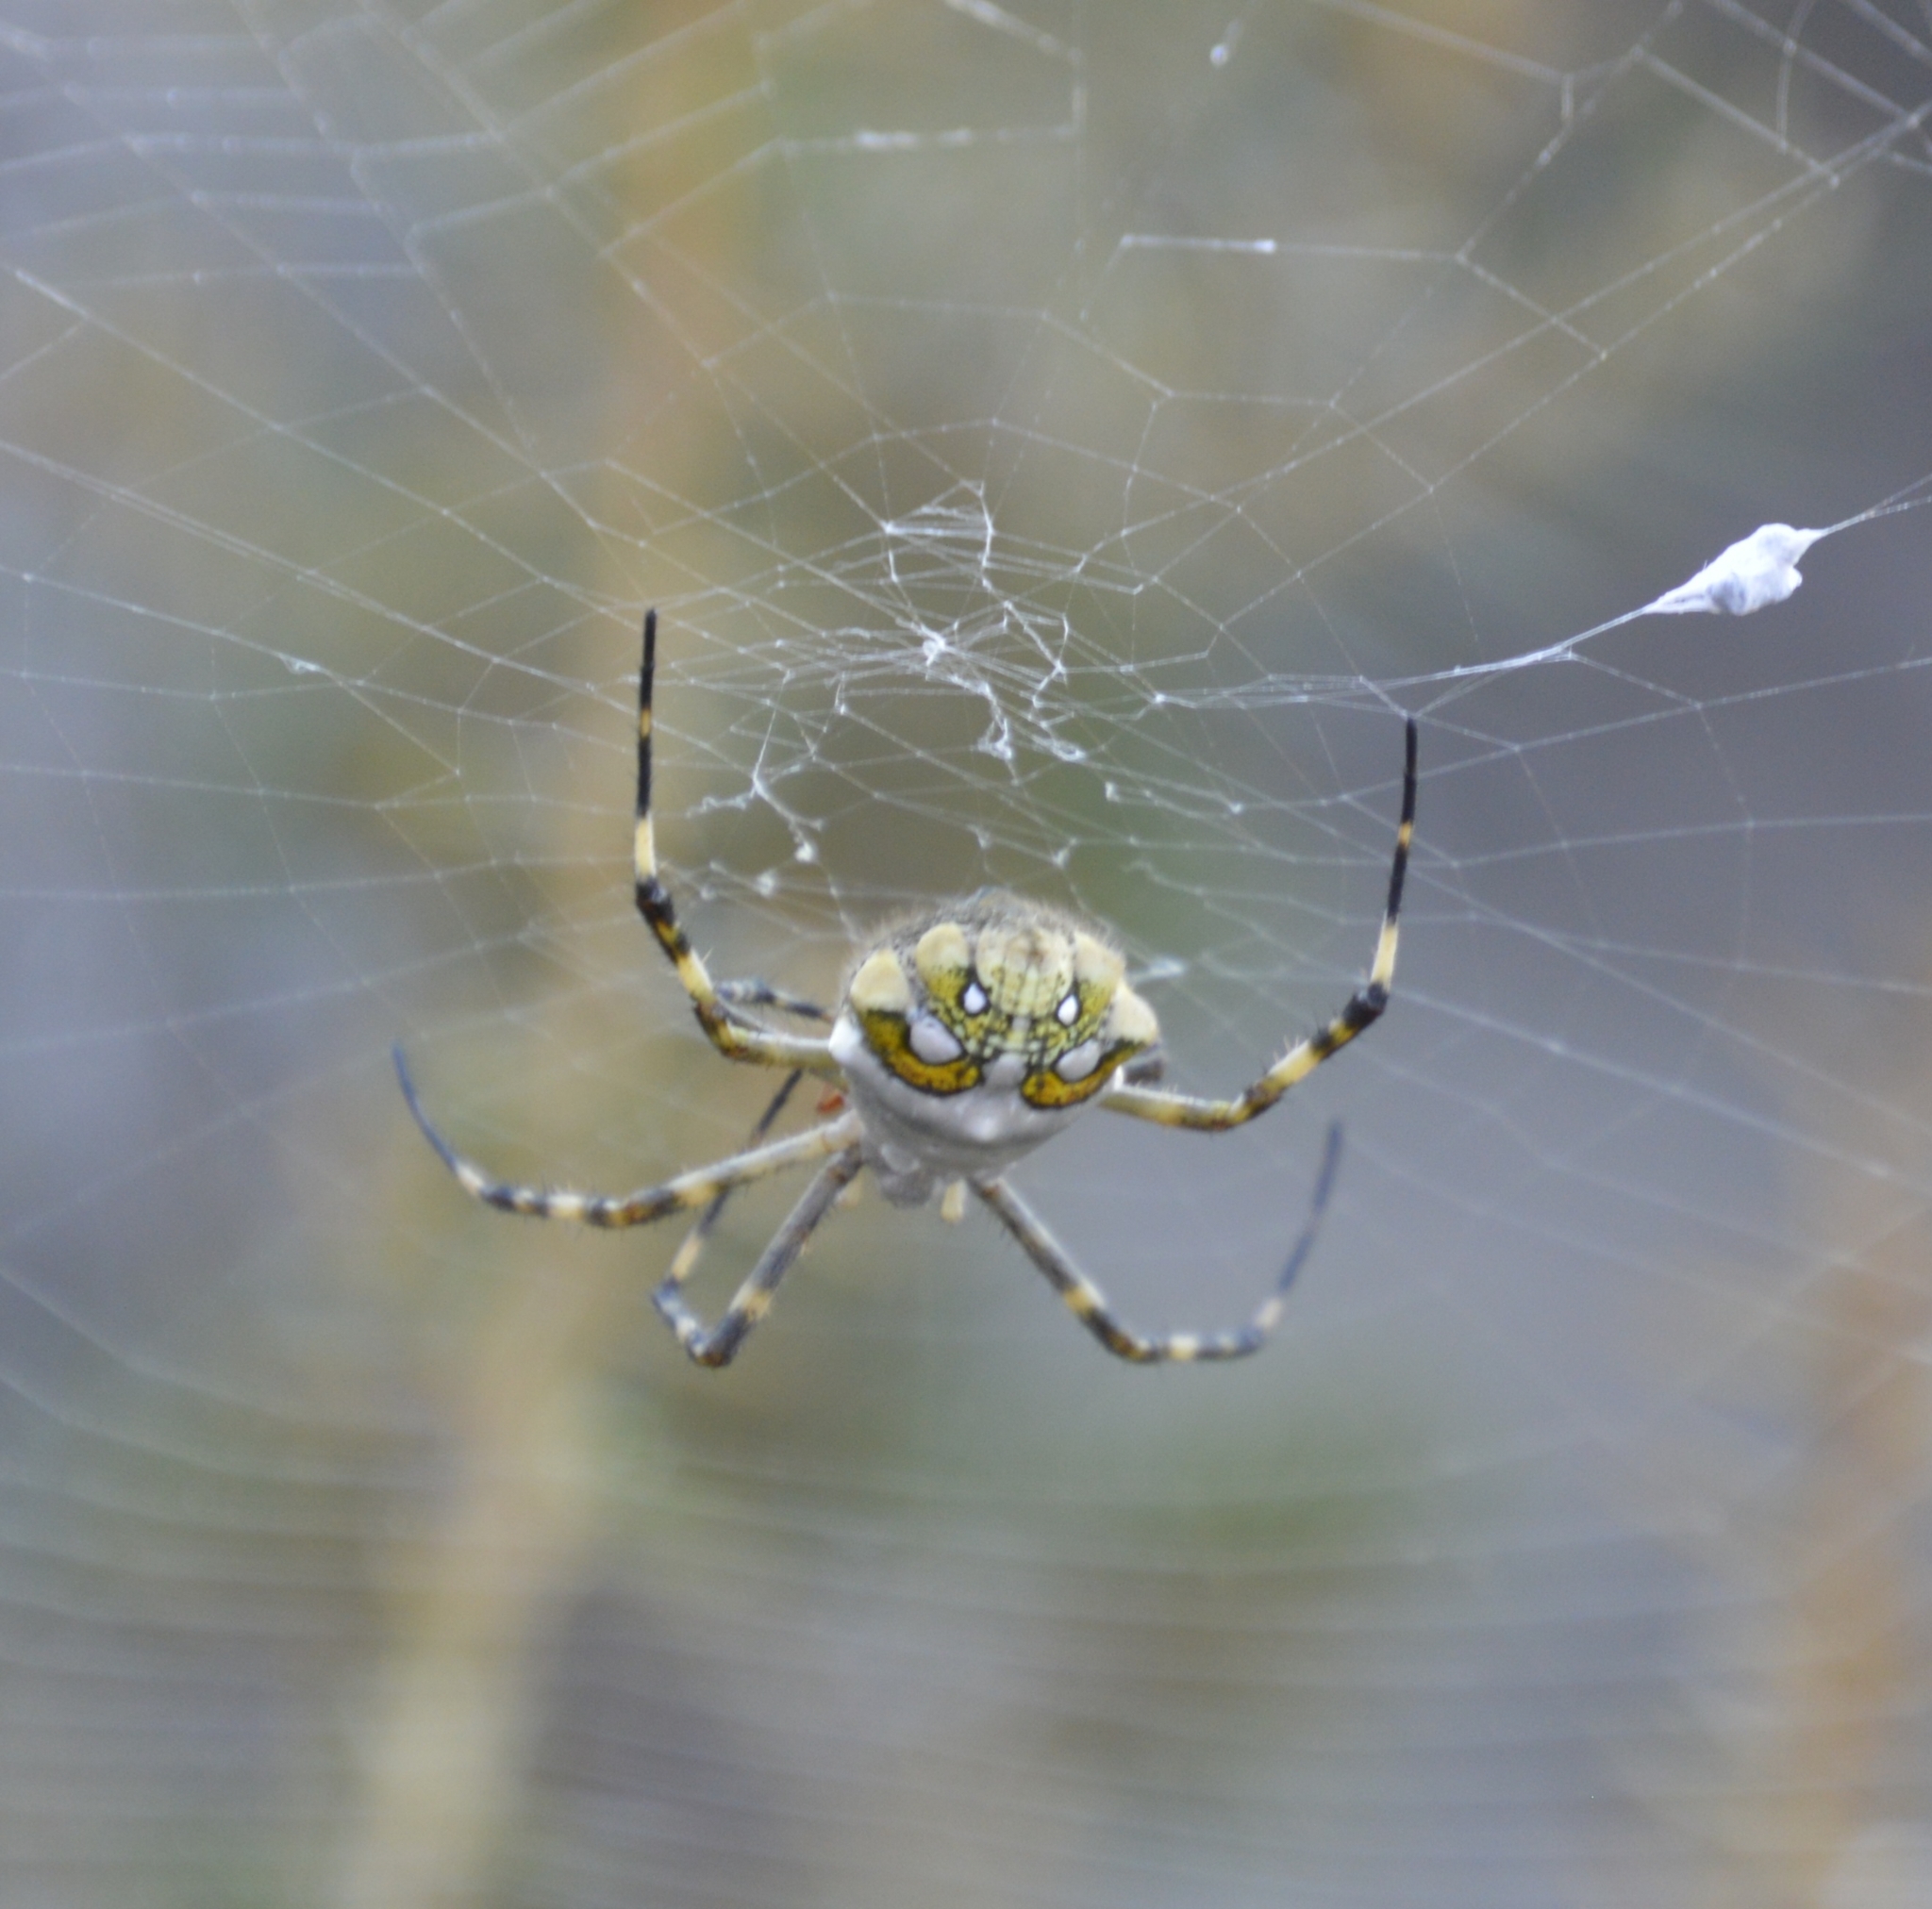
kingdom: Animalia
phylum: Arthropoda
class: Arachnida
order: Araneae
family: Araneidae
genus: Argiope
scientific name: Argiope argentata
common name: Orb weavers
